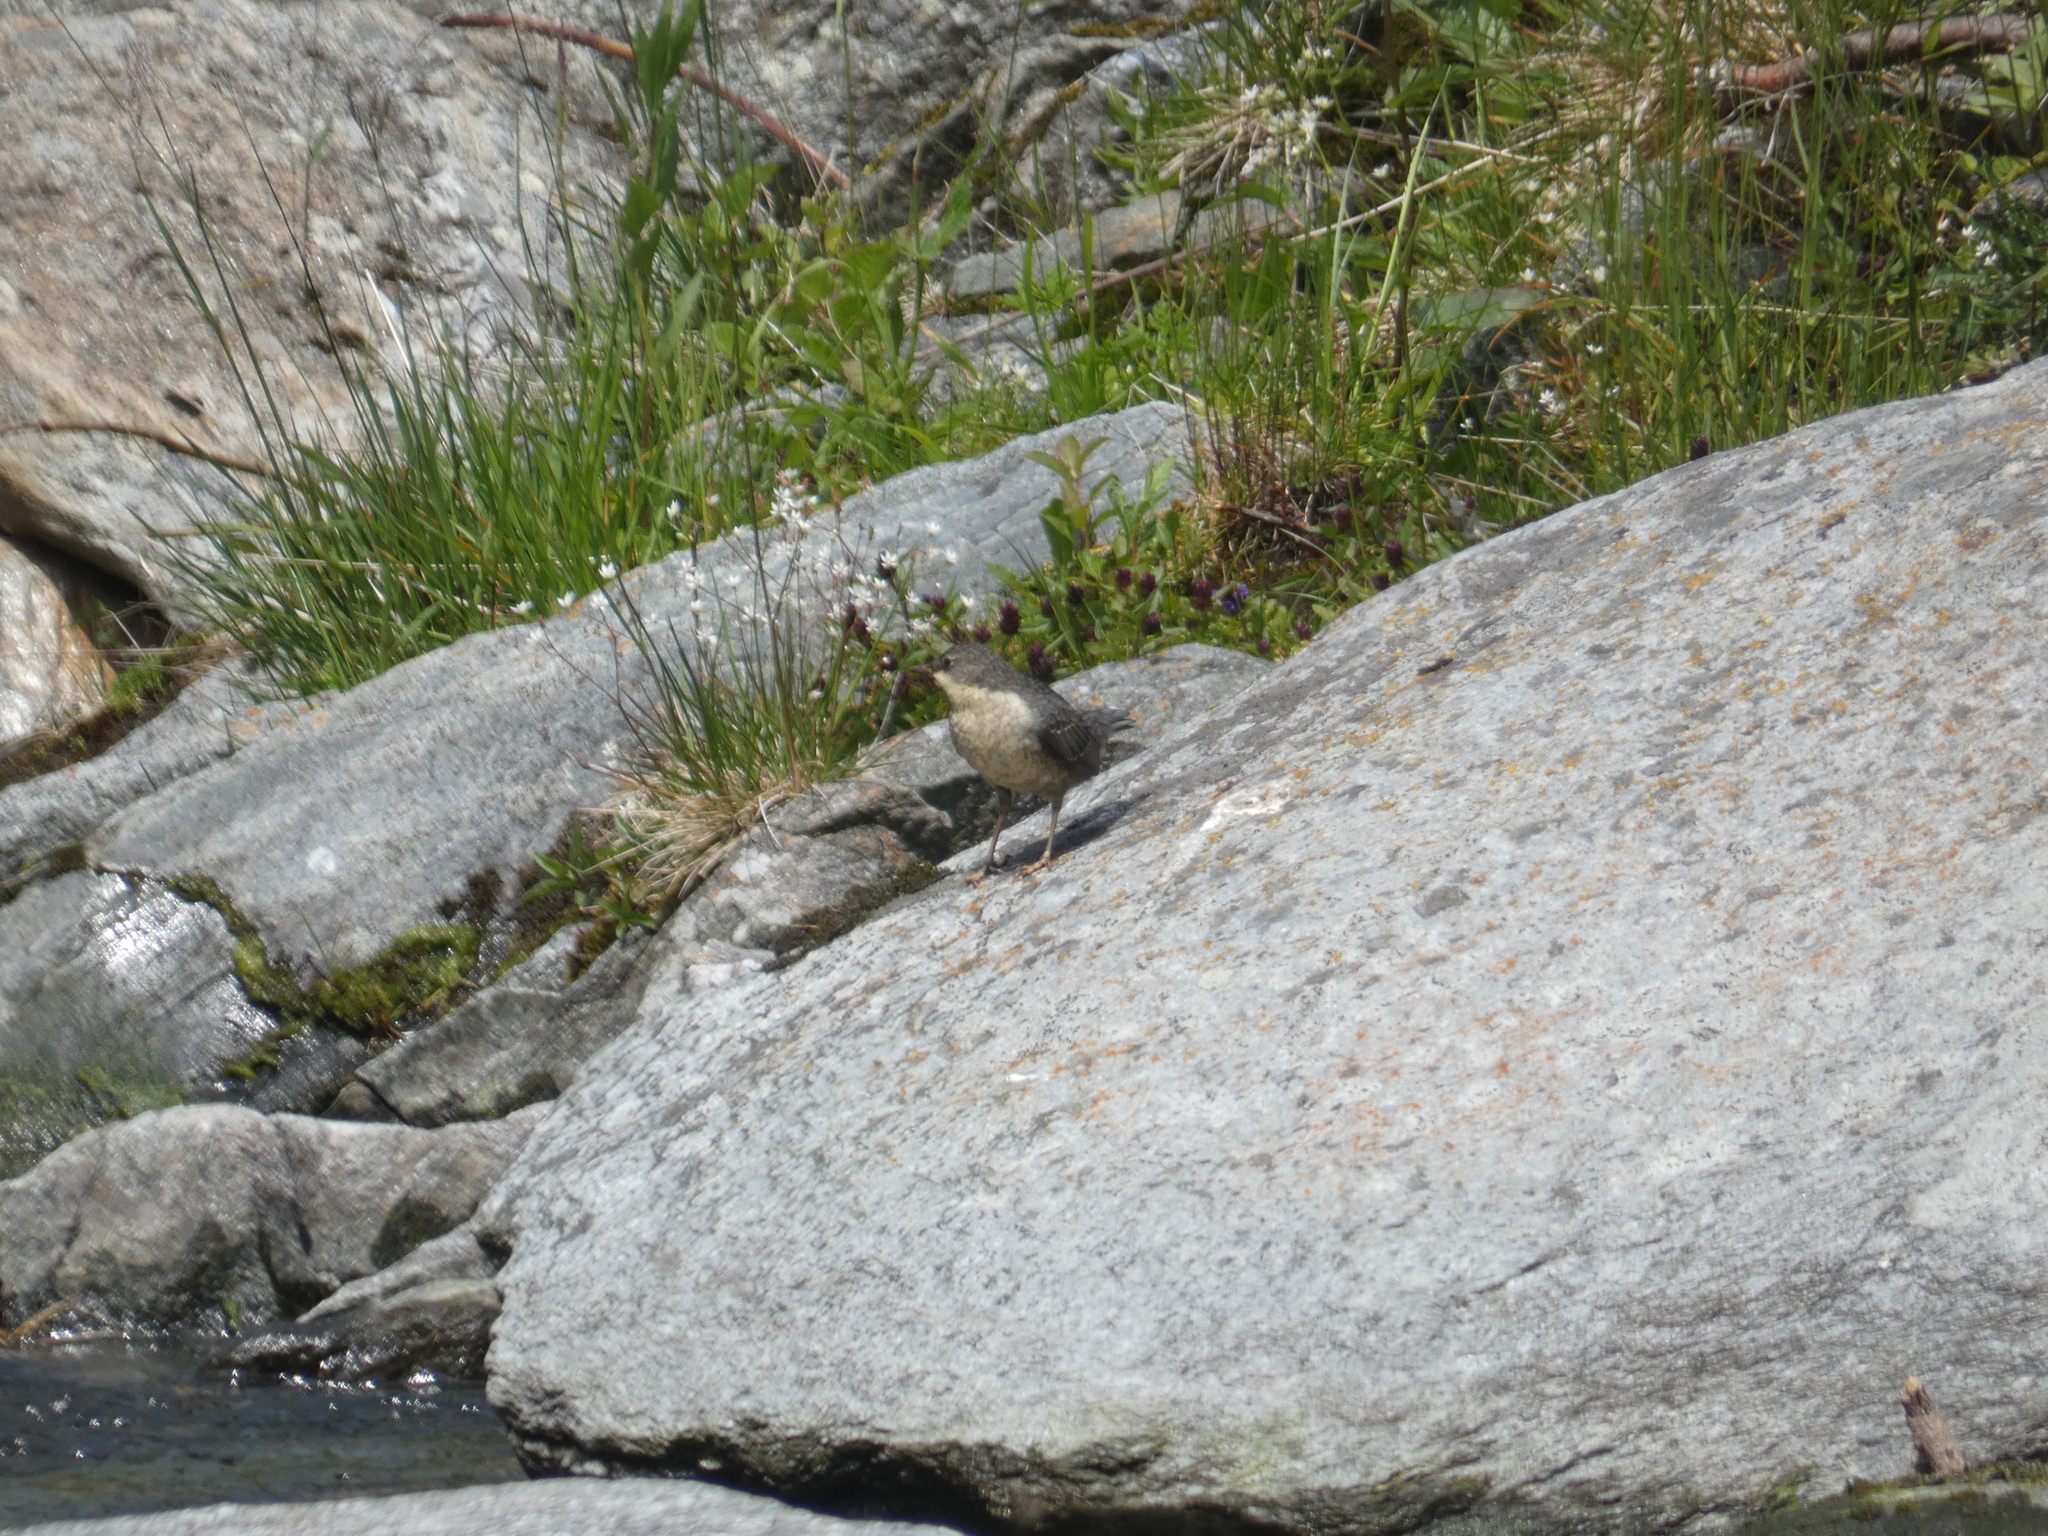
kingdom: Animalia
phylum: Chordata
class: Aves
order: Passeriformes
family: Cinclidae
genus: Cinclus
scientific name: Cinclus cinclus
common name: White-throated dipper
